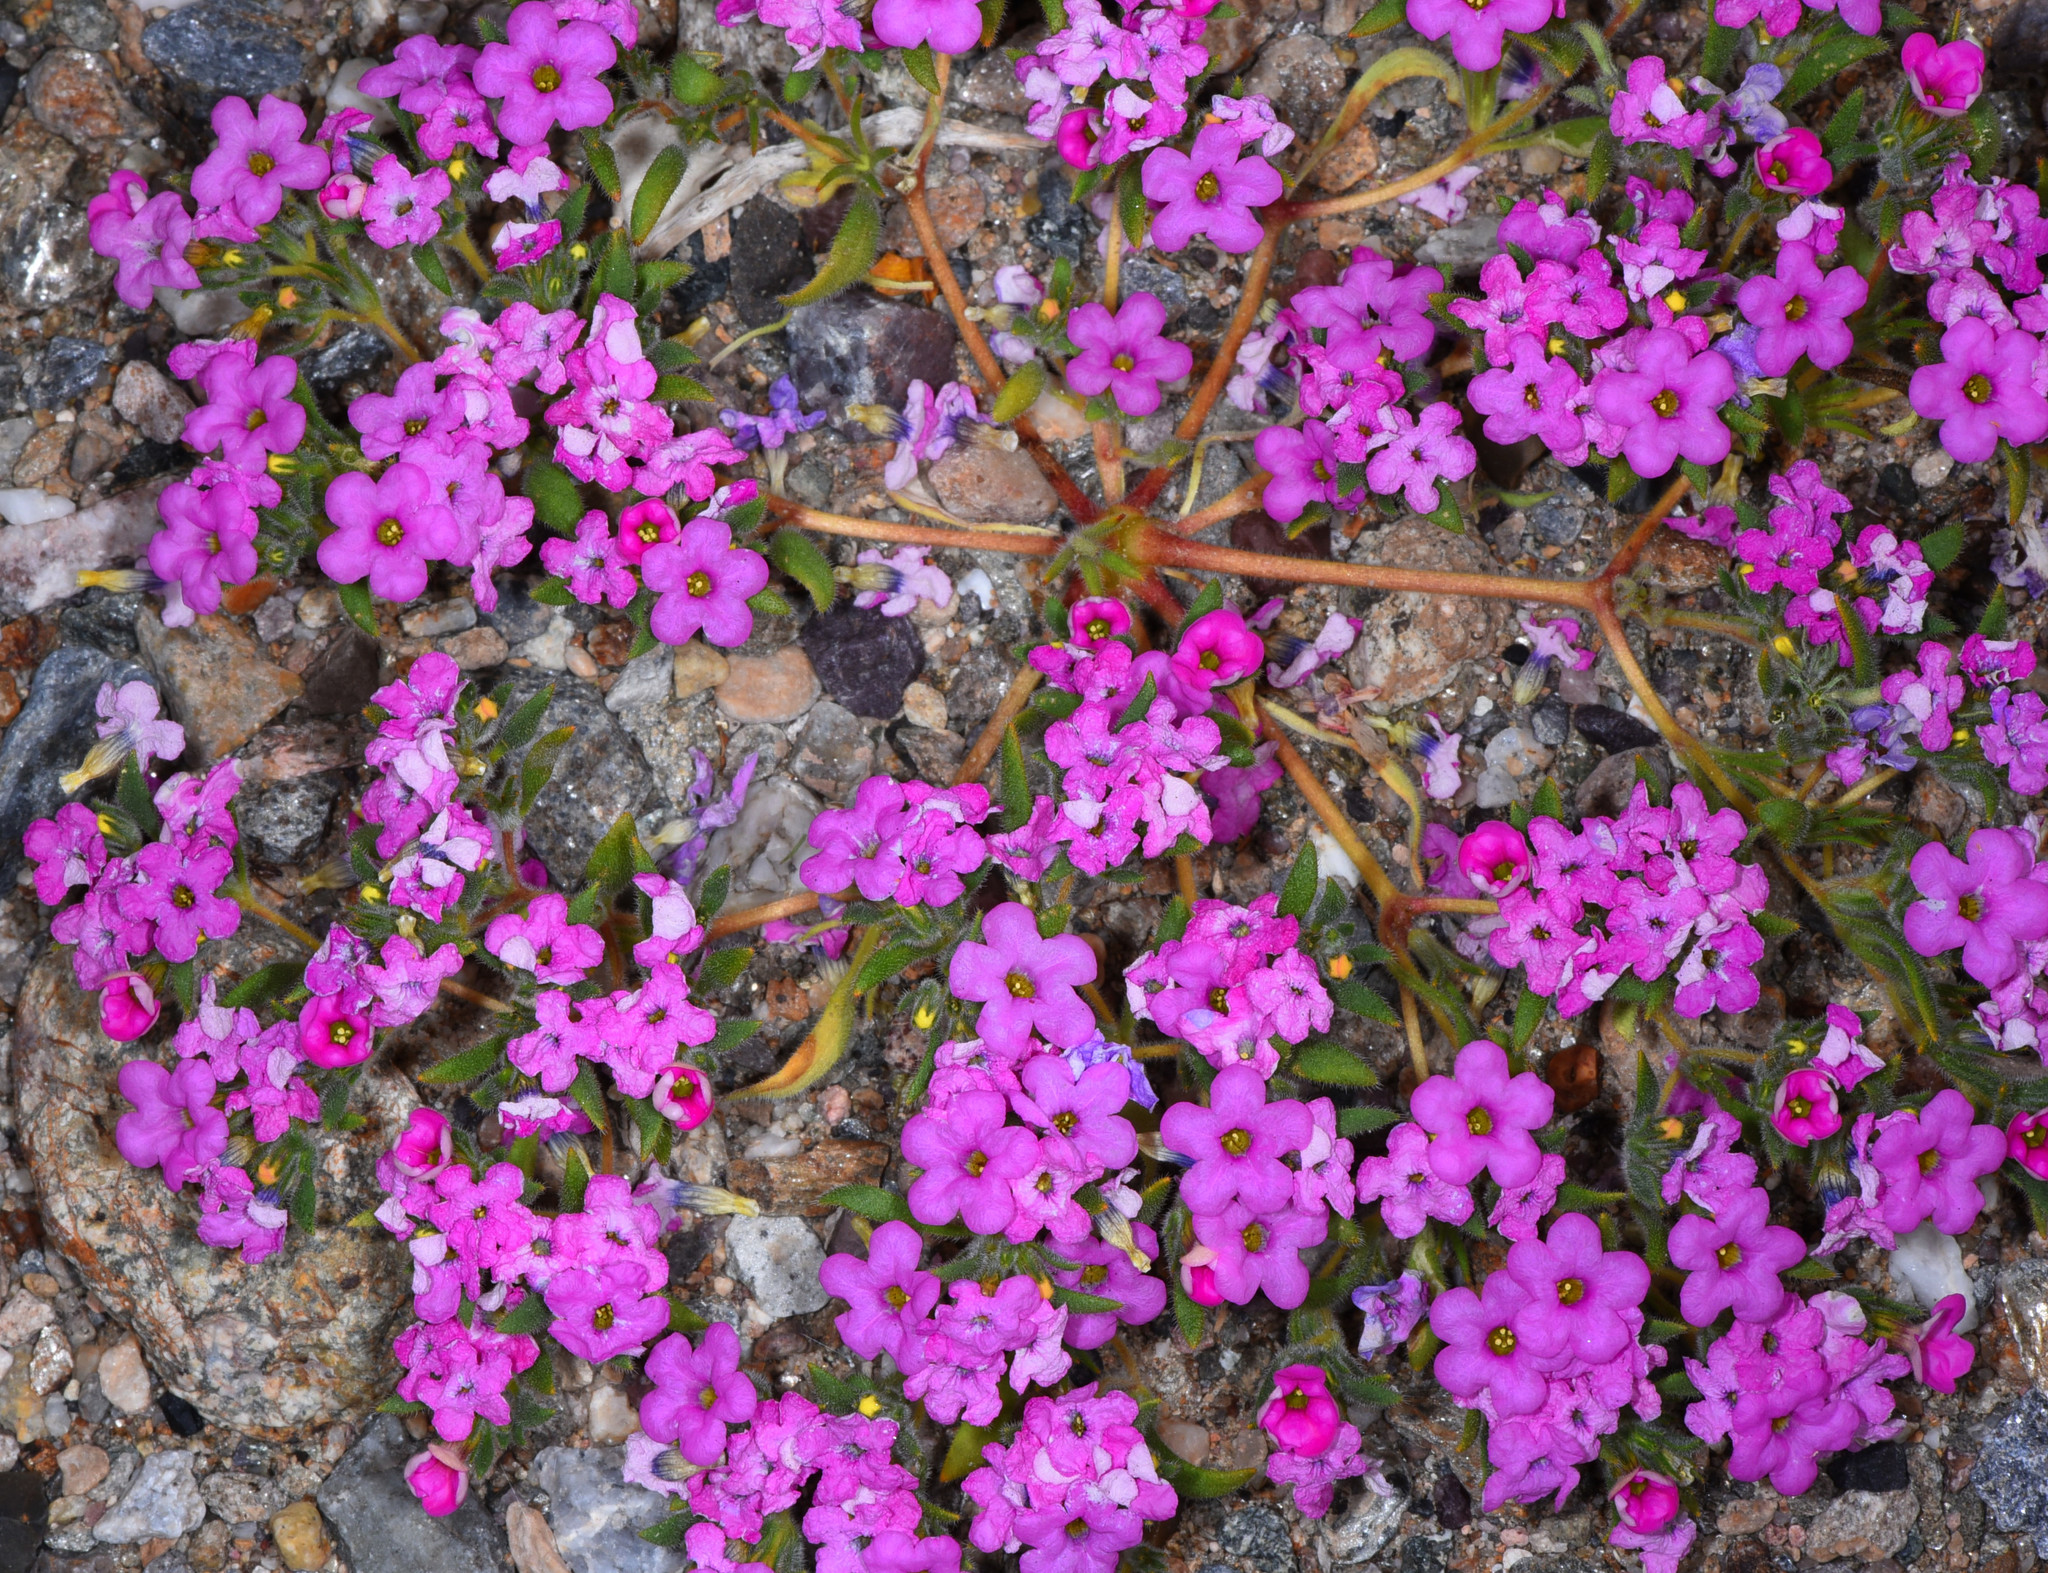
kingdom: Plantae
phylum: Tracheophyta
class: Magnoliopsida
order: Boraginales
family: Namaceae
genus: Nama
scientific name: Nama demissa
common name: Leafy nama
